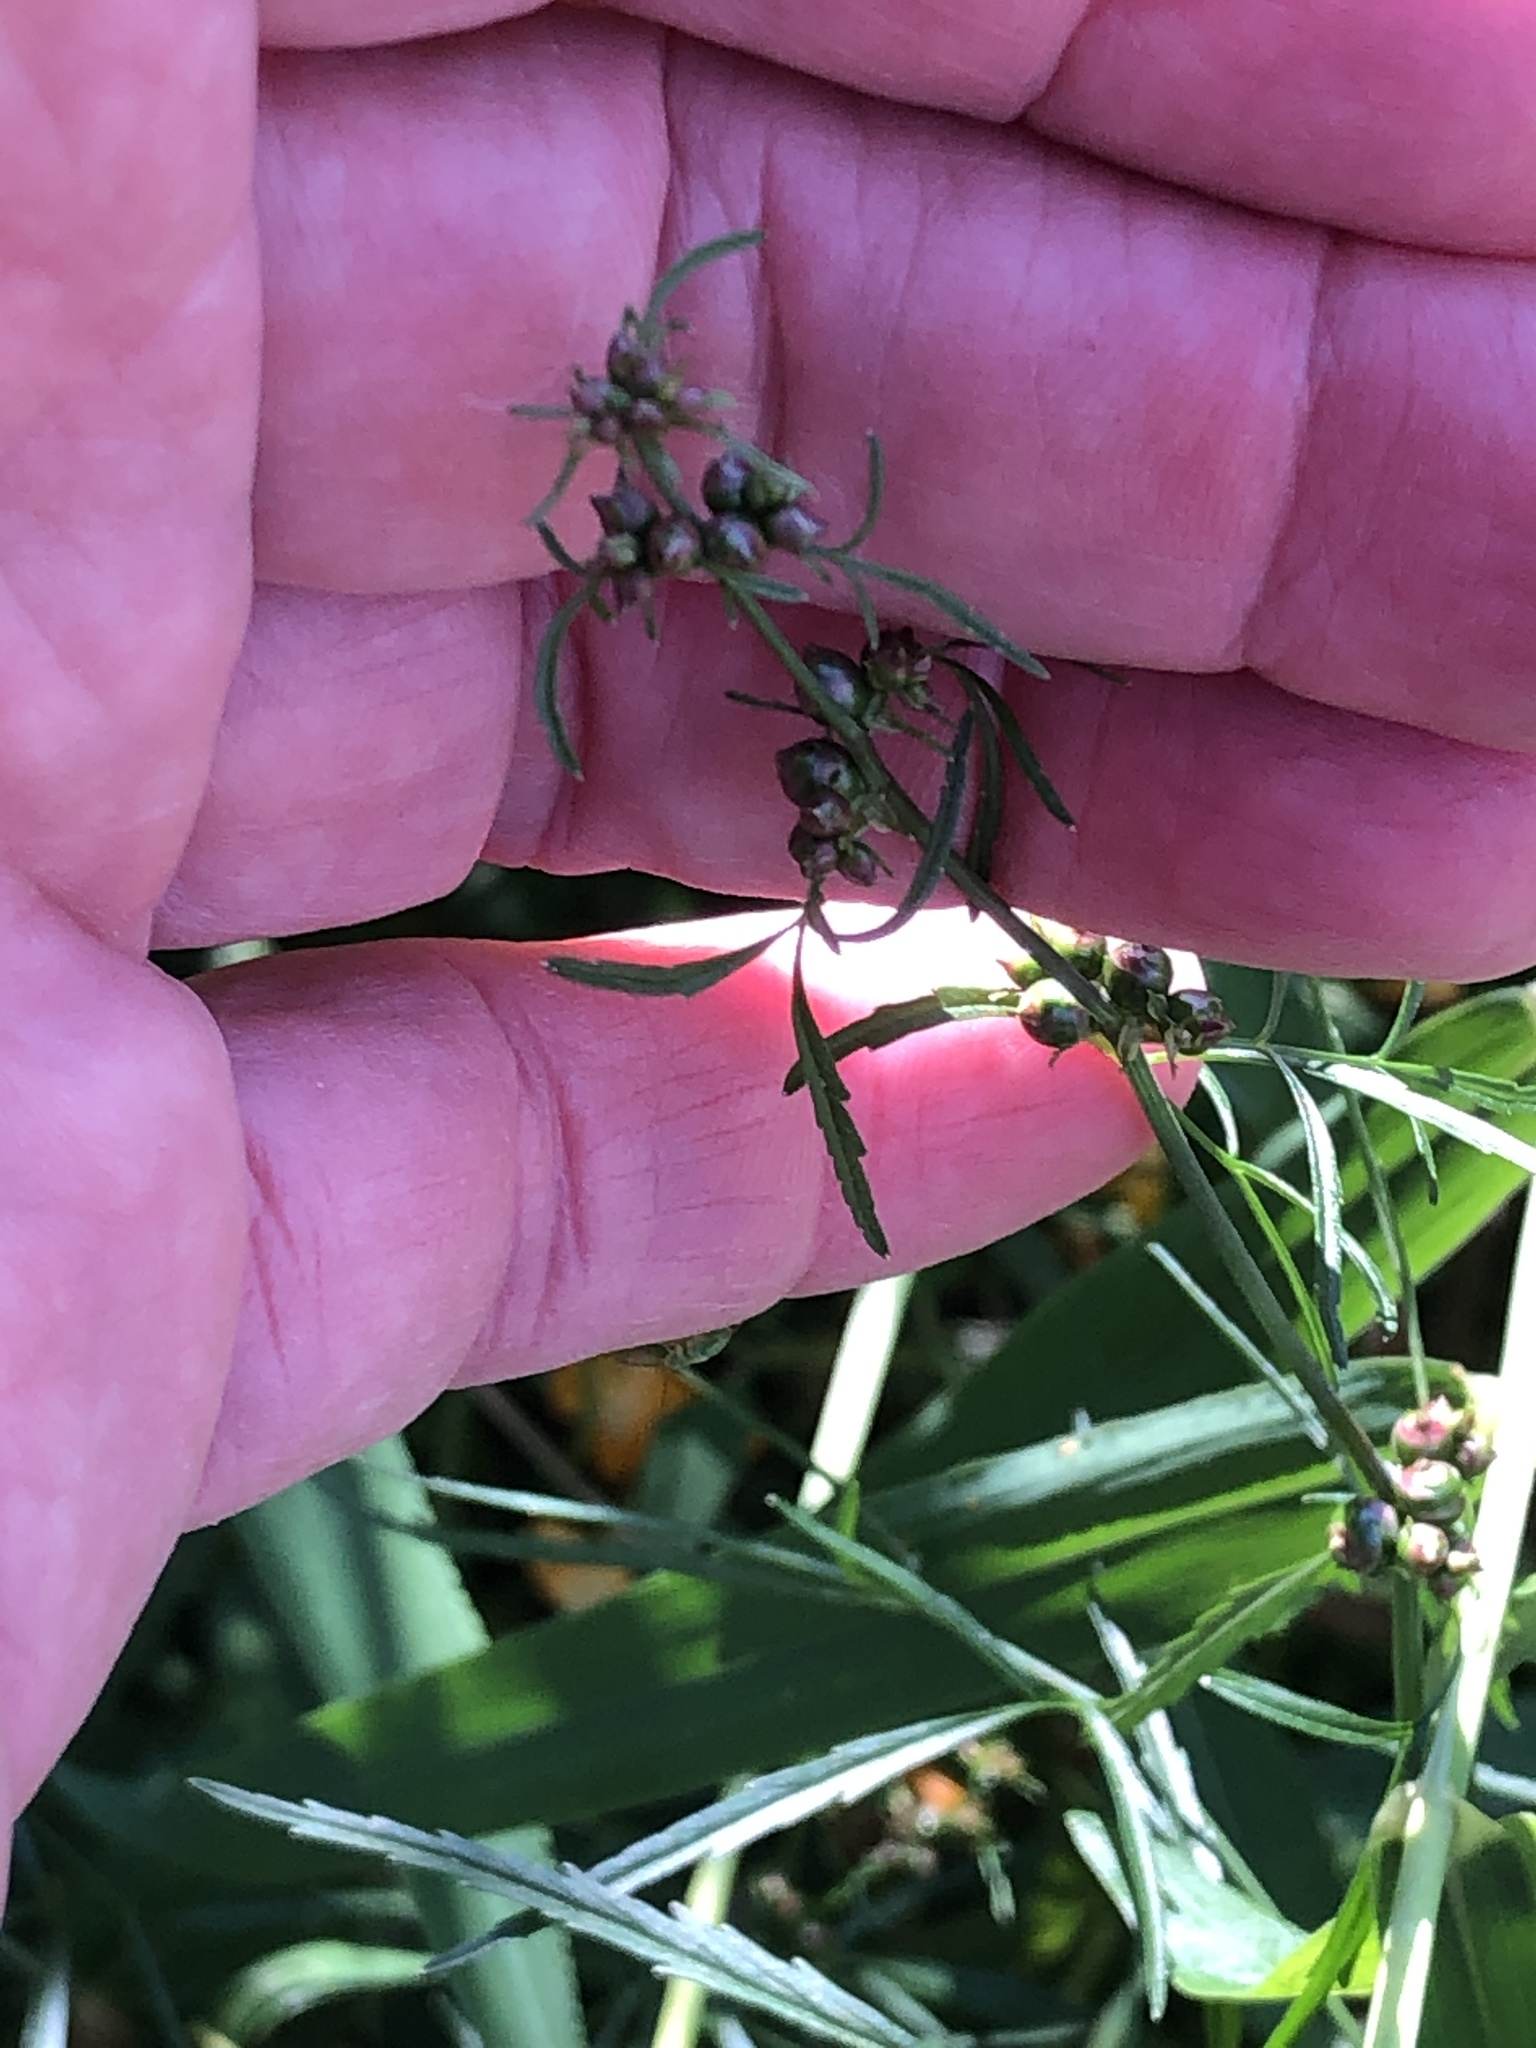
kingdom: Plantae
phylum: Tracheophyta
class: Magnoliopsida
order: Apiales
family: Apiaceae
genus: Cicuta
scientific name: Cicuta bulbifera
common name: Bulb-bearing water-hemlock
